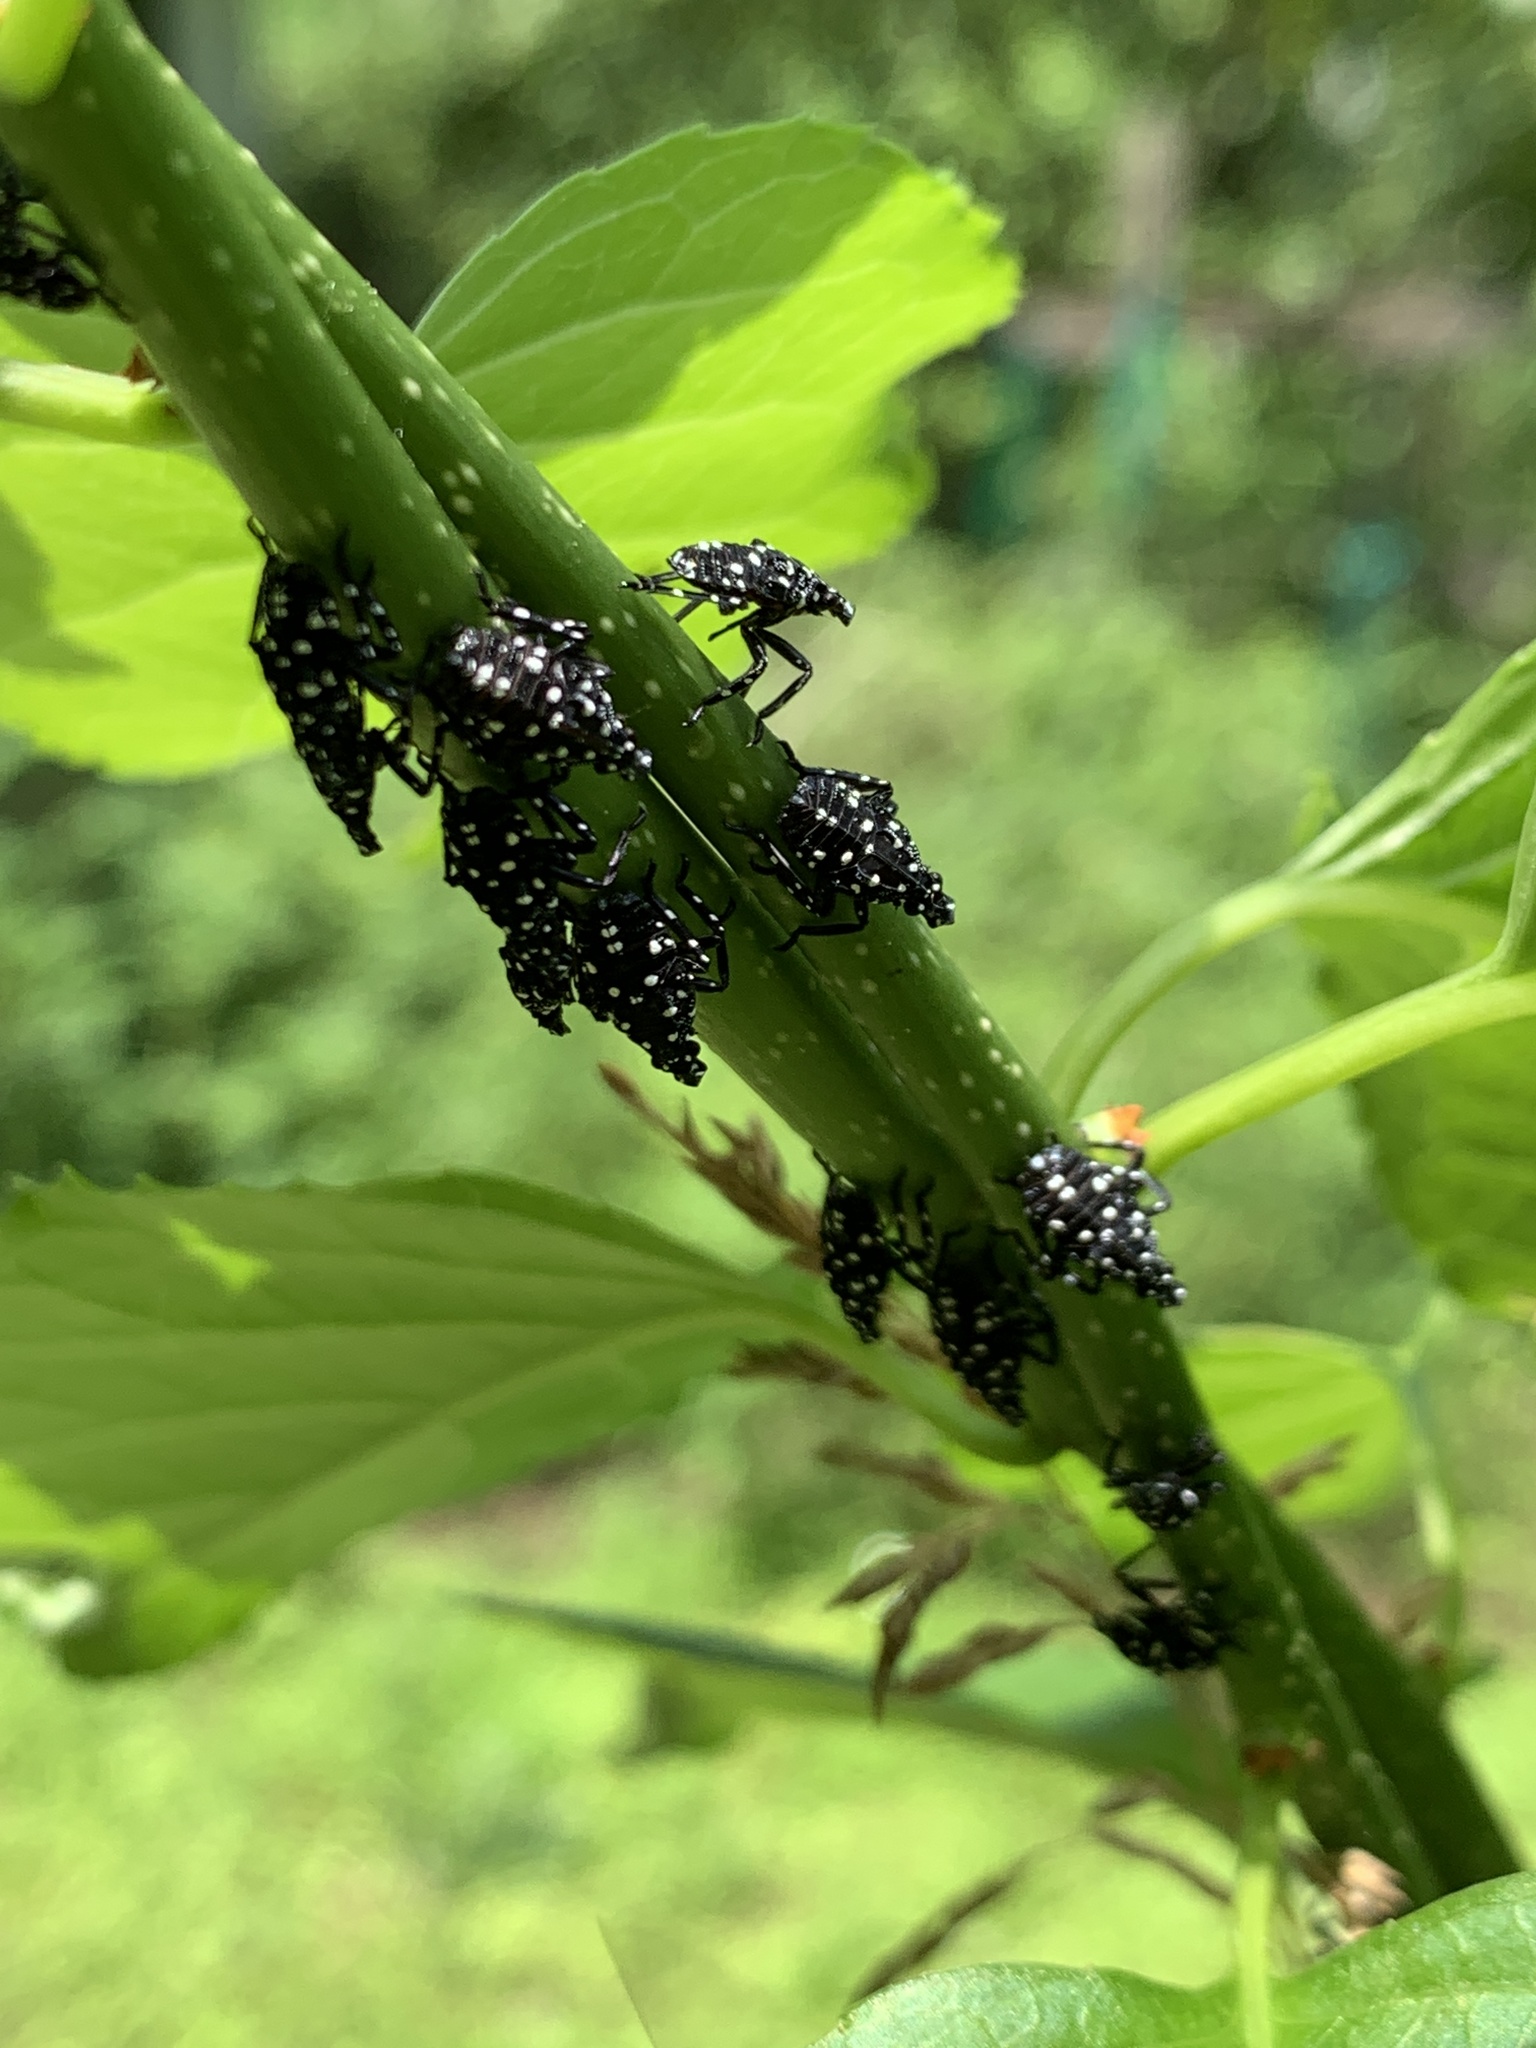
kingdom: Animalia
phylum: Arthropoda
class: Insecta
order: Hemiptera
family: Fulgoridae
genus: Lycorma
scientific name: Lycorma delicatula
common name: Spotted lanternfly
